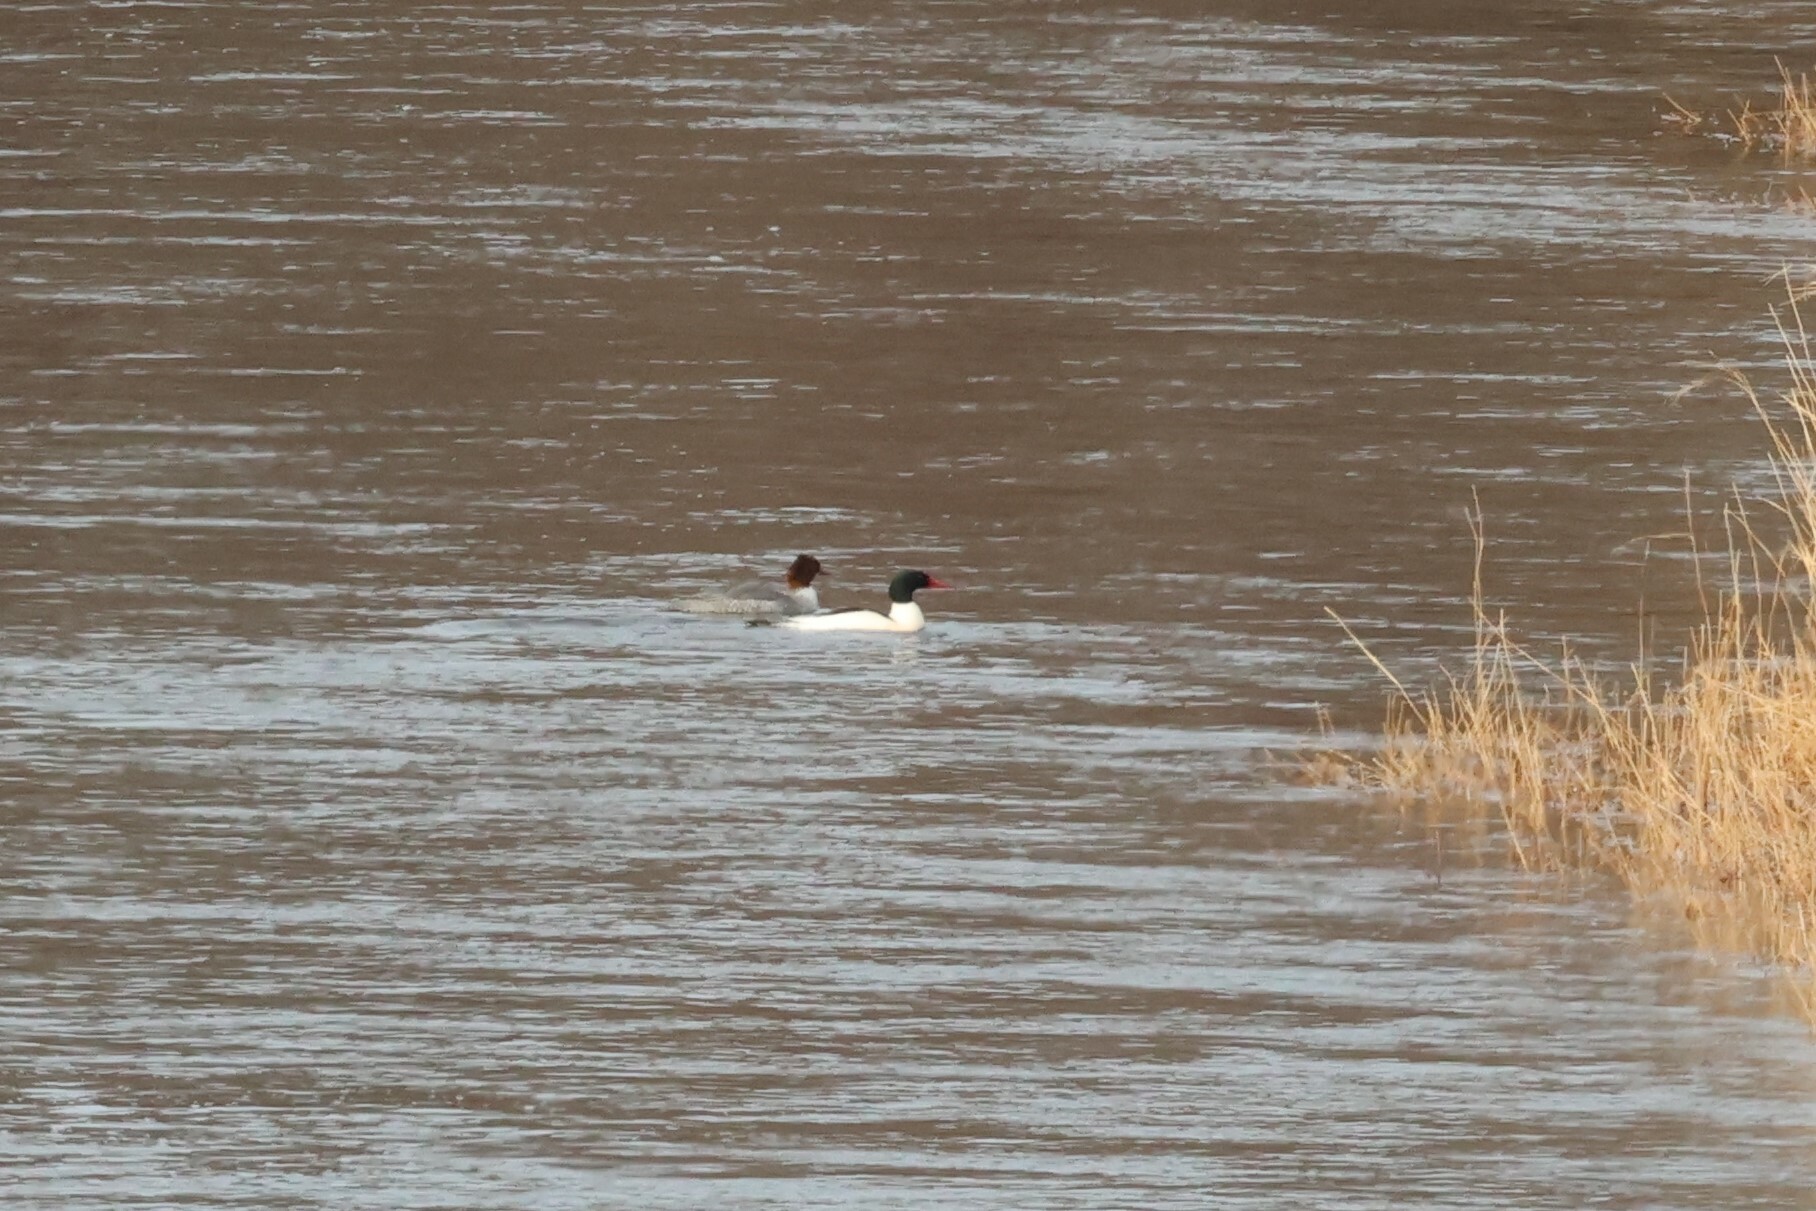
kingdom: Animalia
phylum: Chordata
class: Aves
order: Anseriformes
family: Anatidae
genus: Mergus
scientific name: Mergus merganser
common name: Common merganser
